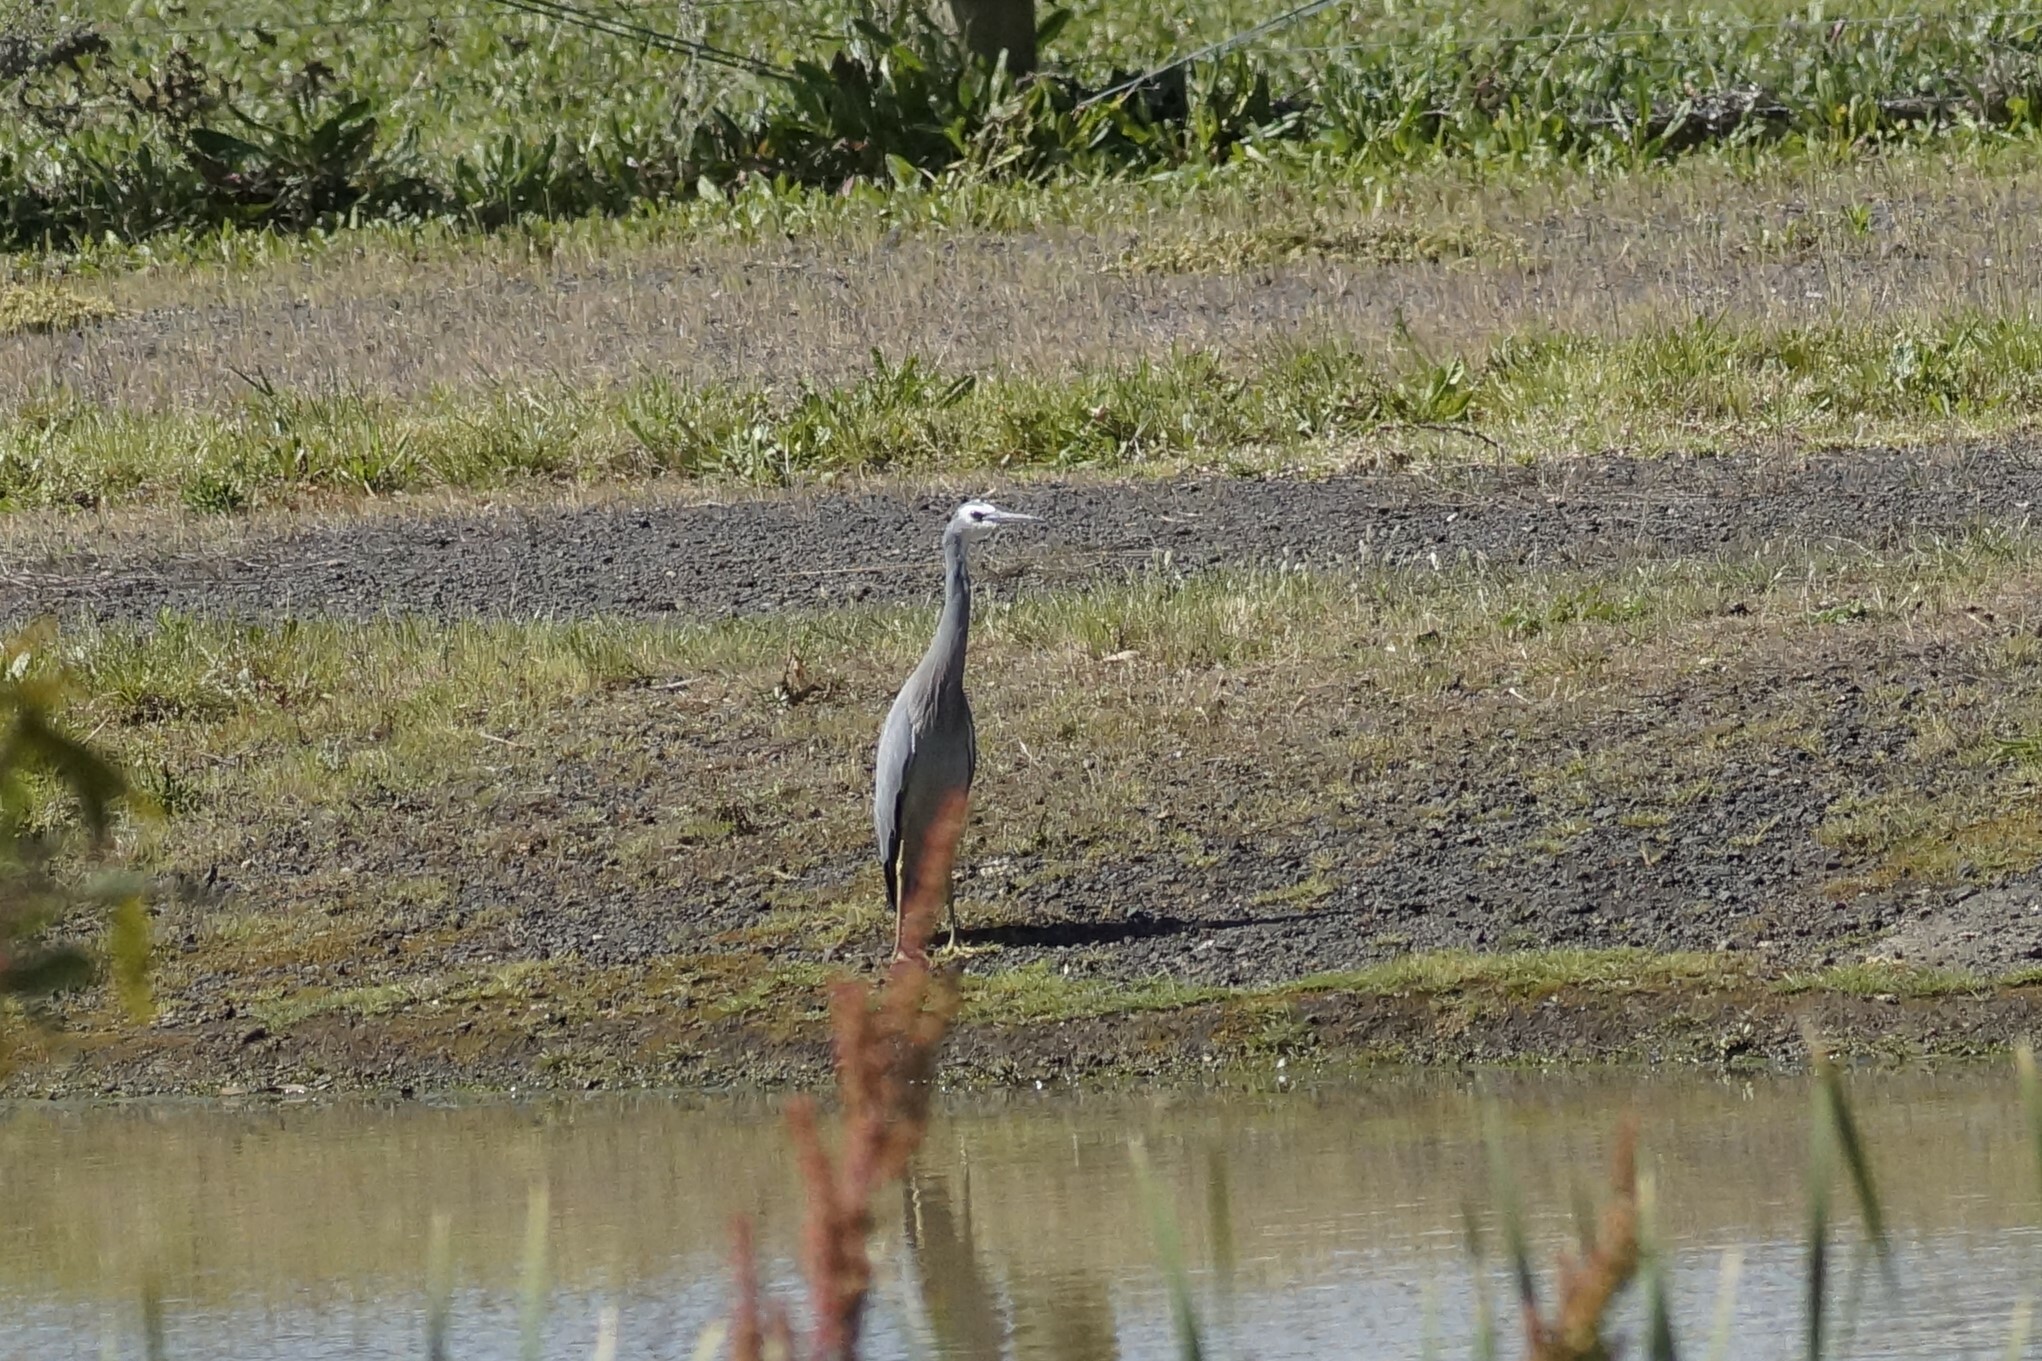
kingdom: Animalia
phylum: Chordata
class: Aves
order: Pelecaniformes
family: Ardeidae
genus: Egretta
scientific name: Egretta novaehollandiae
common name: White-faced heron
